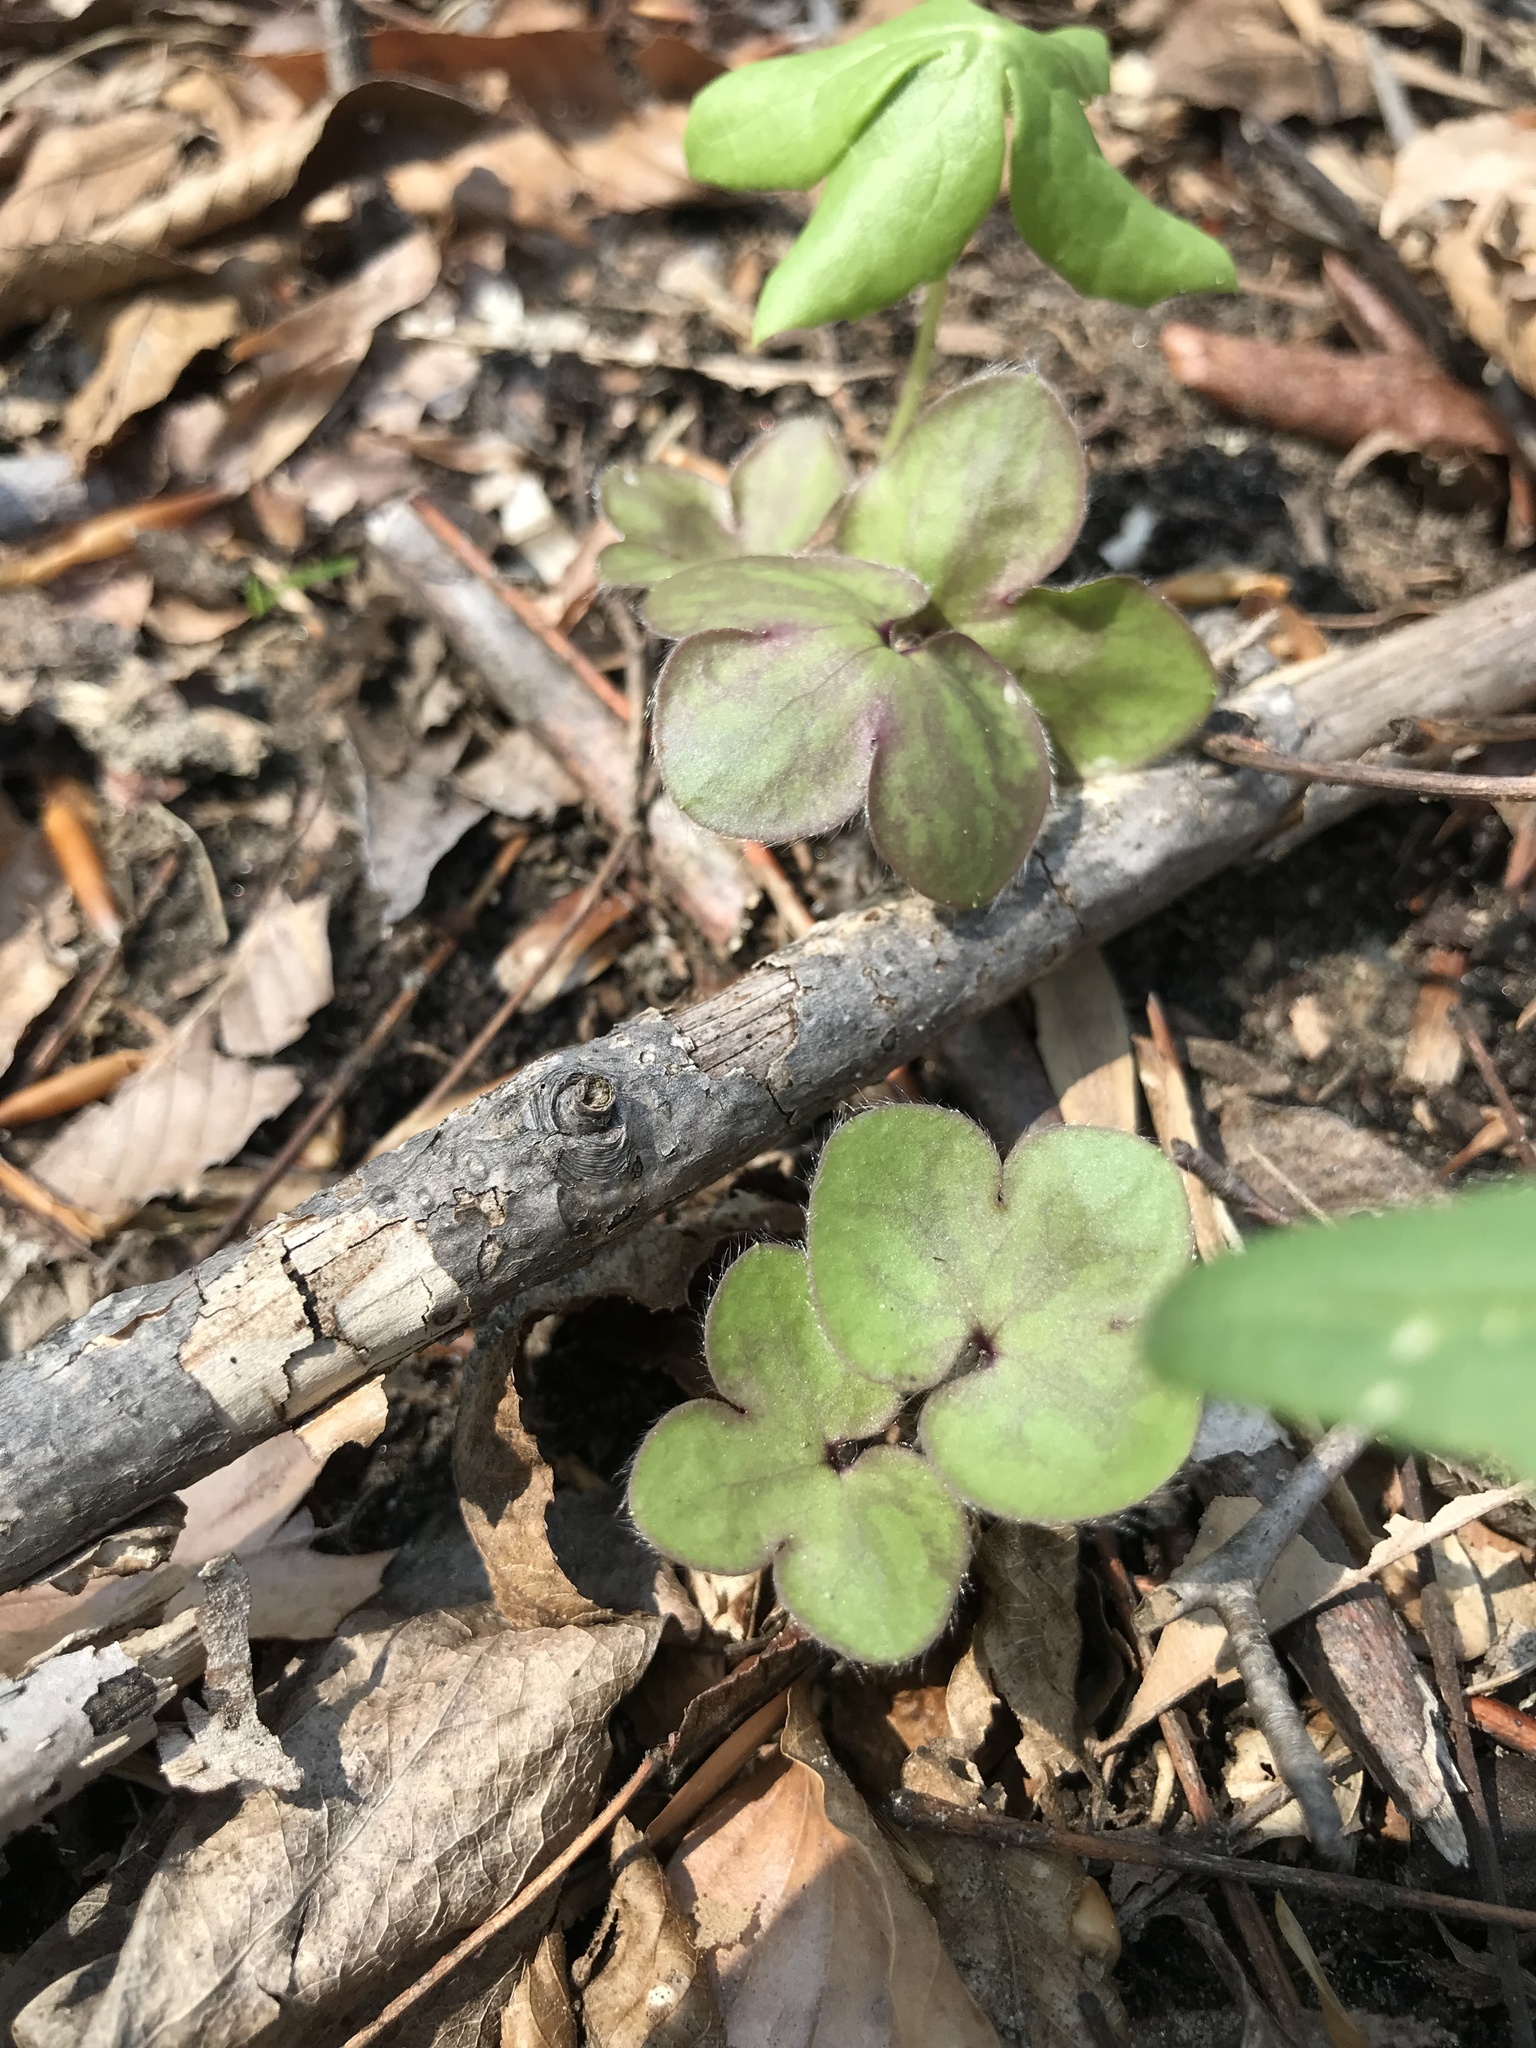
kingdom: Plantae
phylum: Tracheophyta
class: Magnoliopsida
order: Ranunculales
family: Ranunculaceae
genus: Hepatica
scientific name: Hepatica americana
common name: American hepatica
